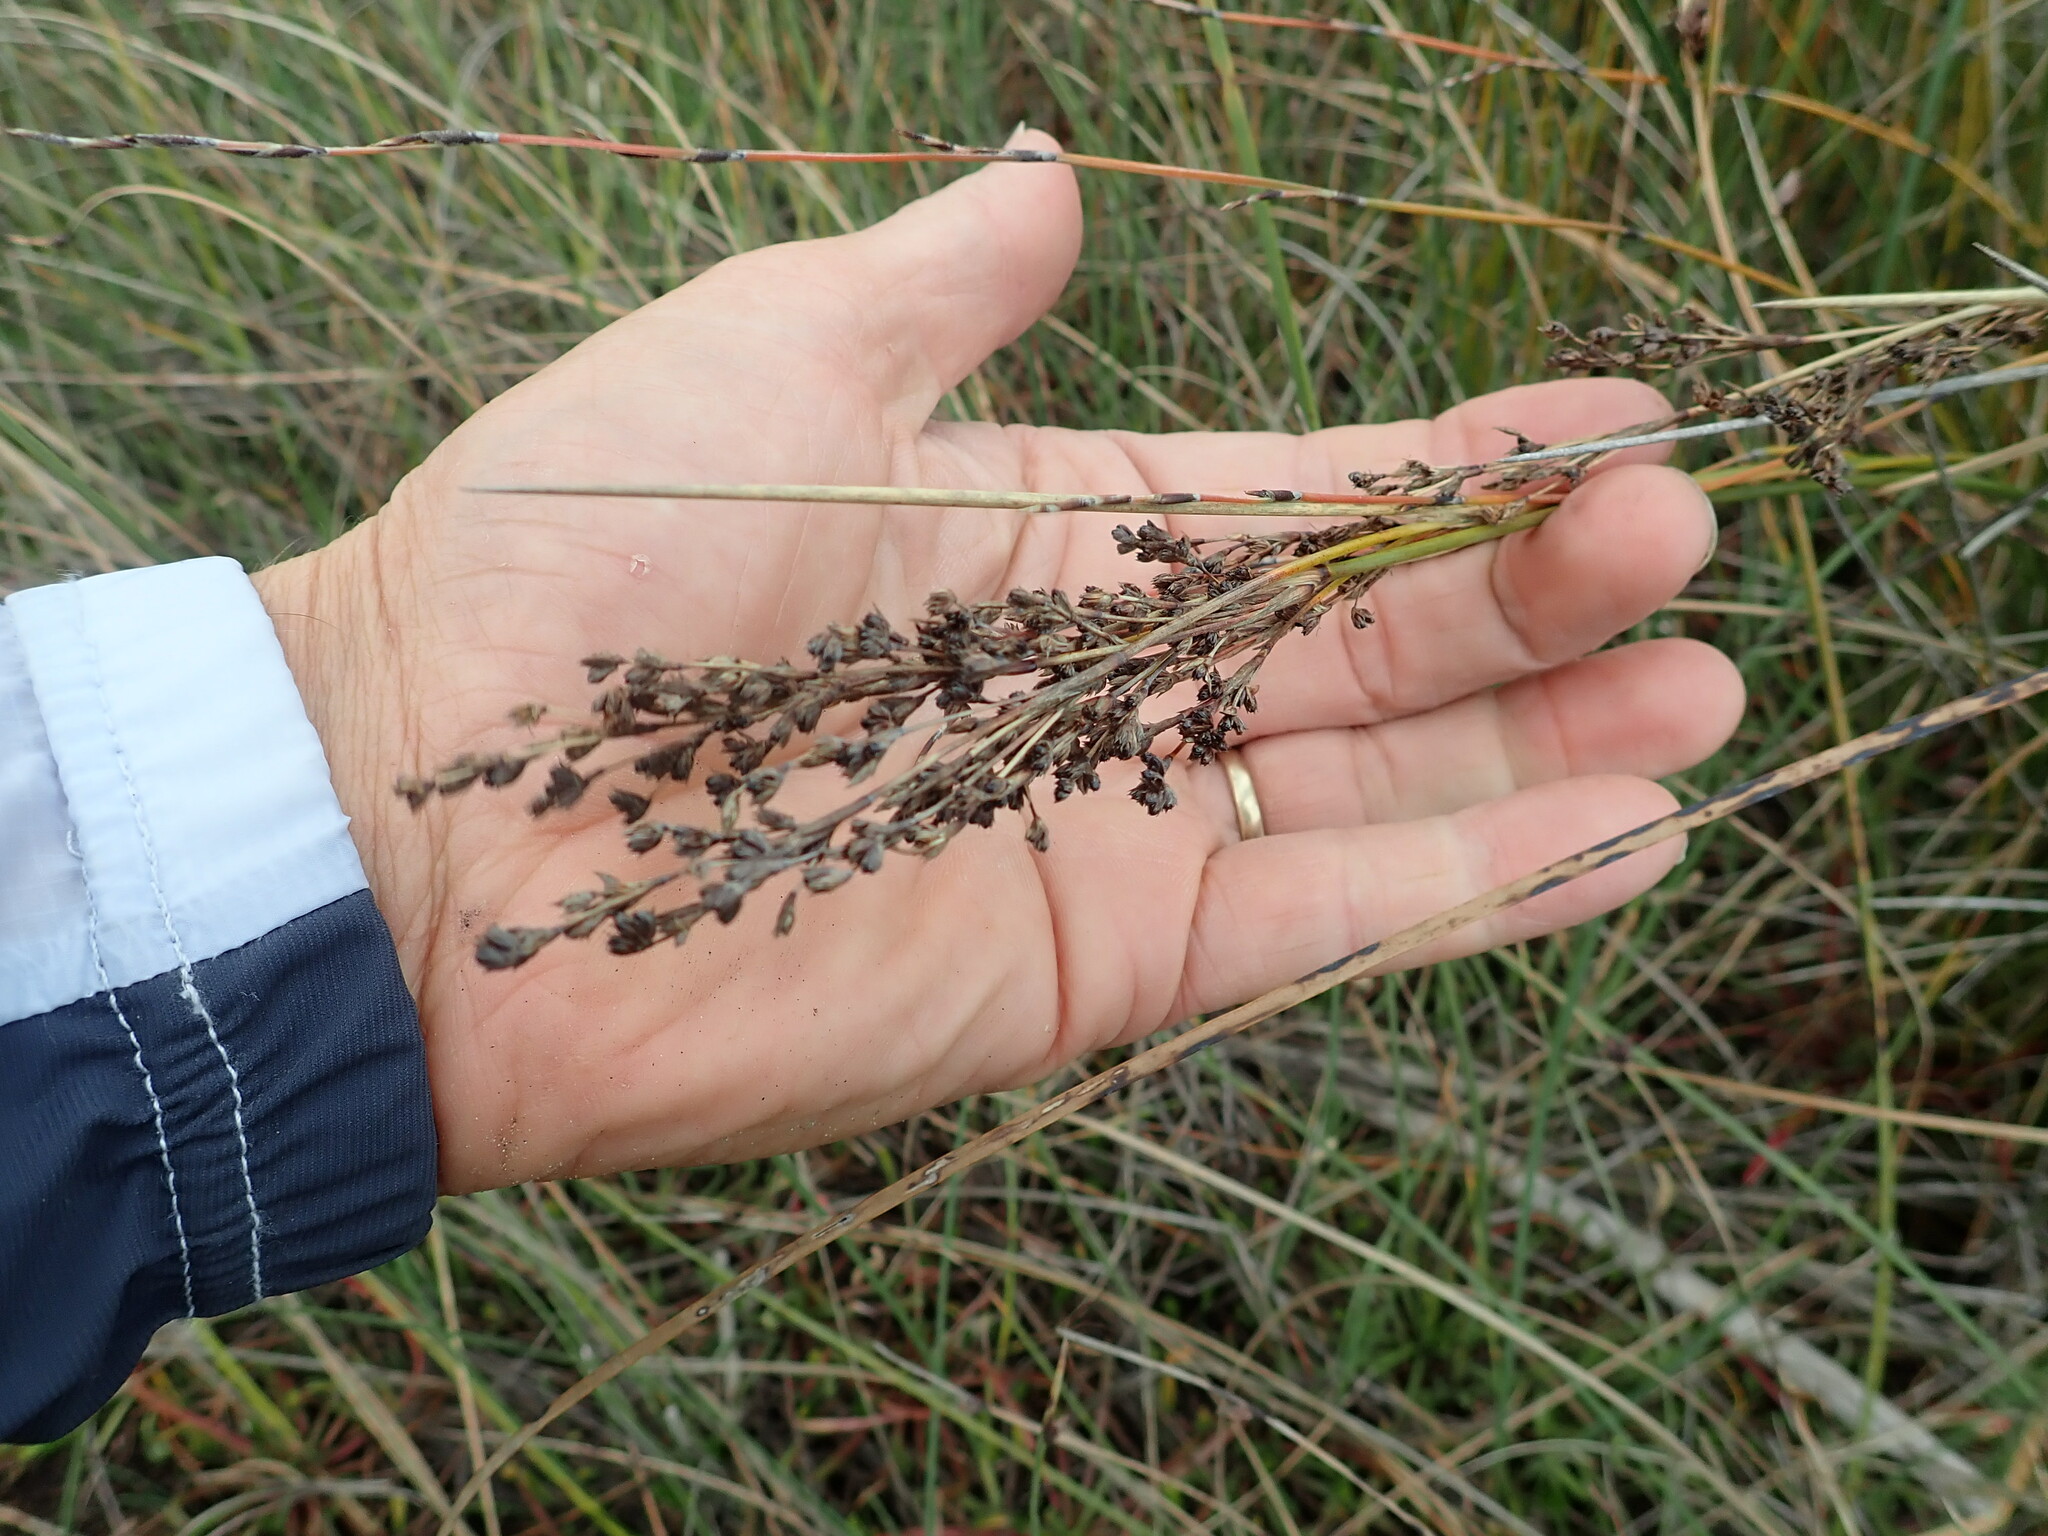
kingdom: Plantae
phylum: Tracheophyta
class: Liliopsida
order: Poales
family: Juncaceae
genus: Juncus
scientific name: Juncus kraussii
